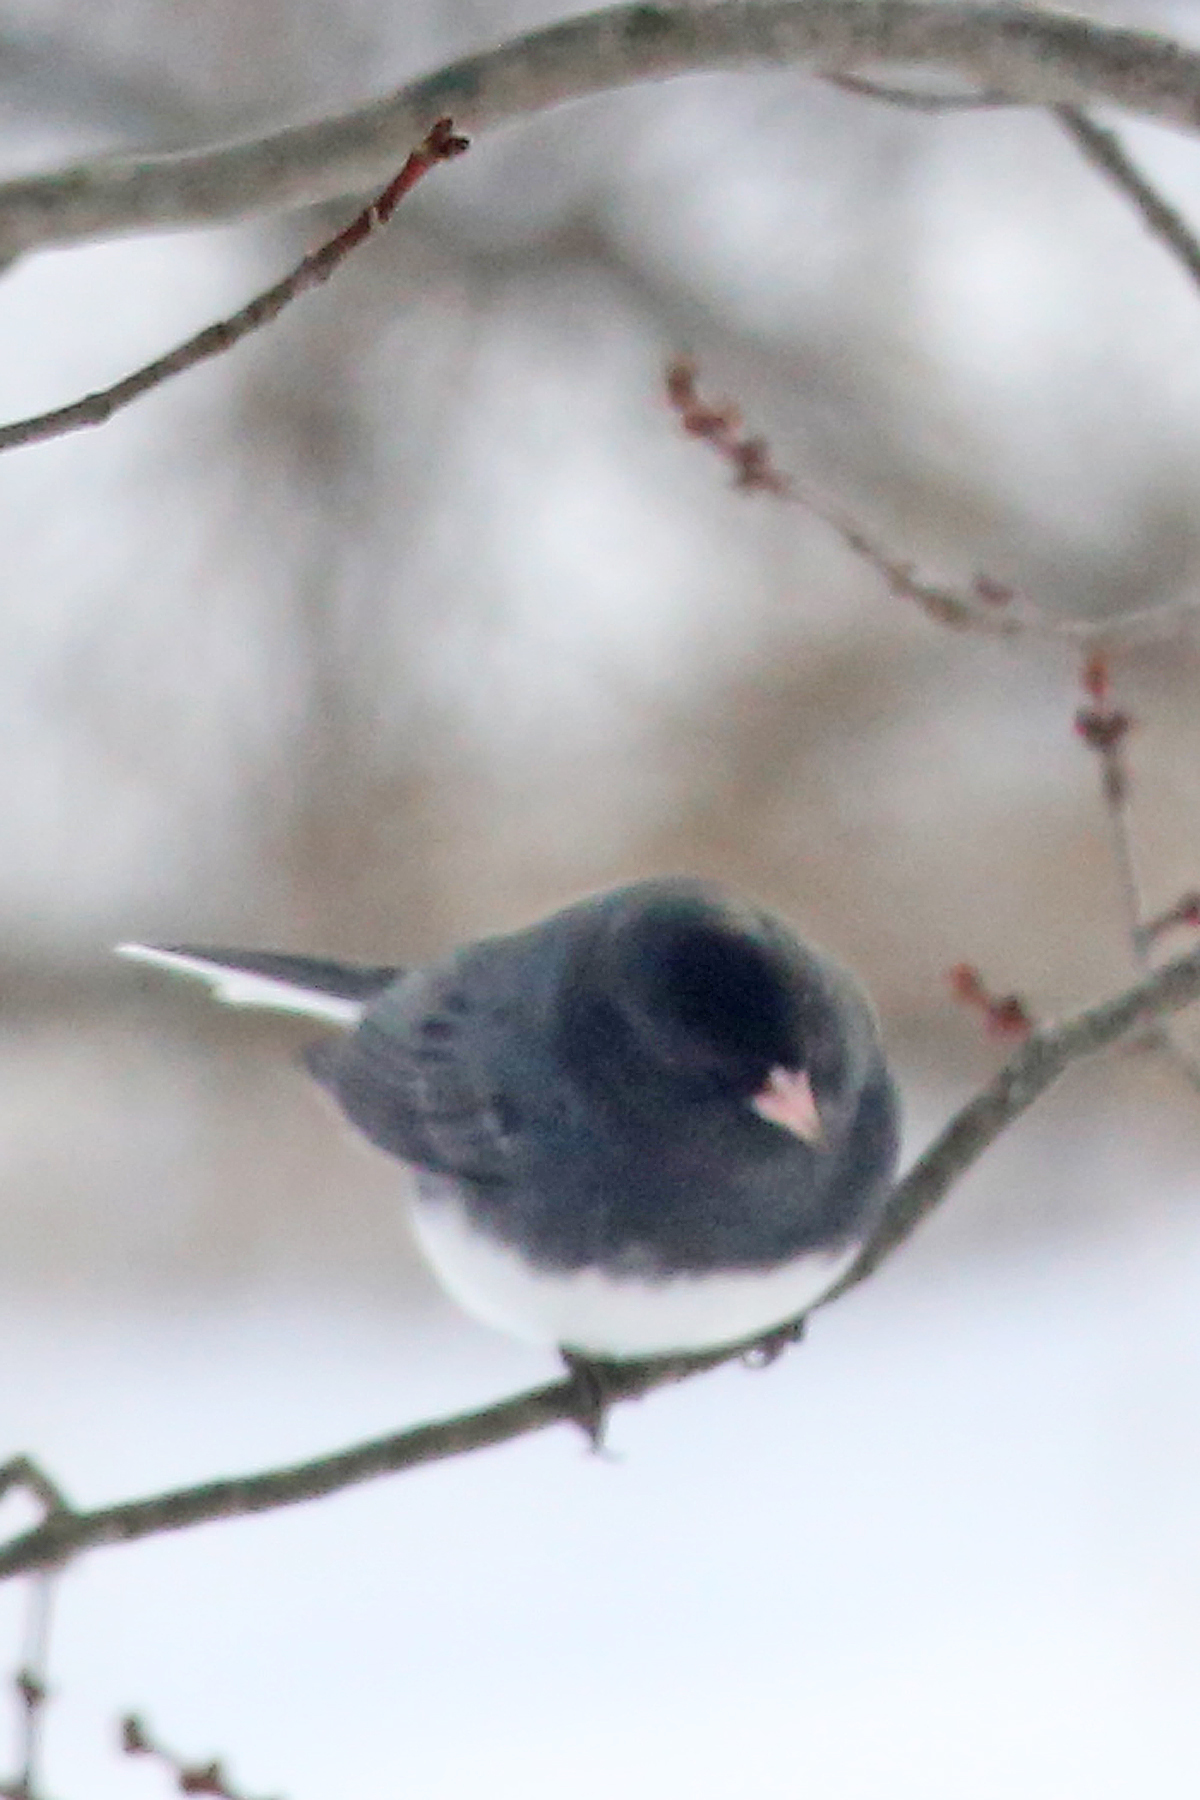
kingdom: Animalia
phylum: Chordata
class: Aves
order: Passeriformes
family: Passerellidae
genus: Junco
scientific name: Junco hyemalis
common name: Dark-eyed junco
